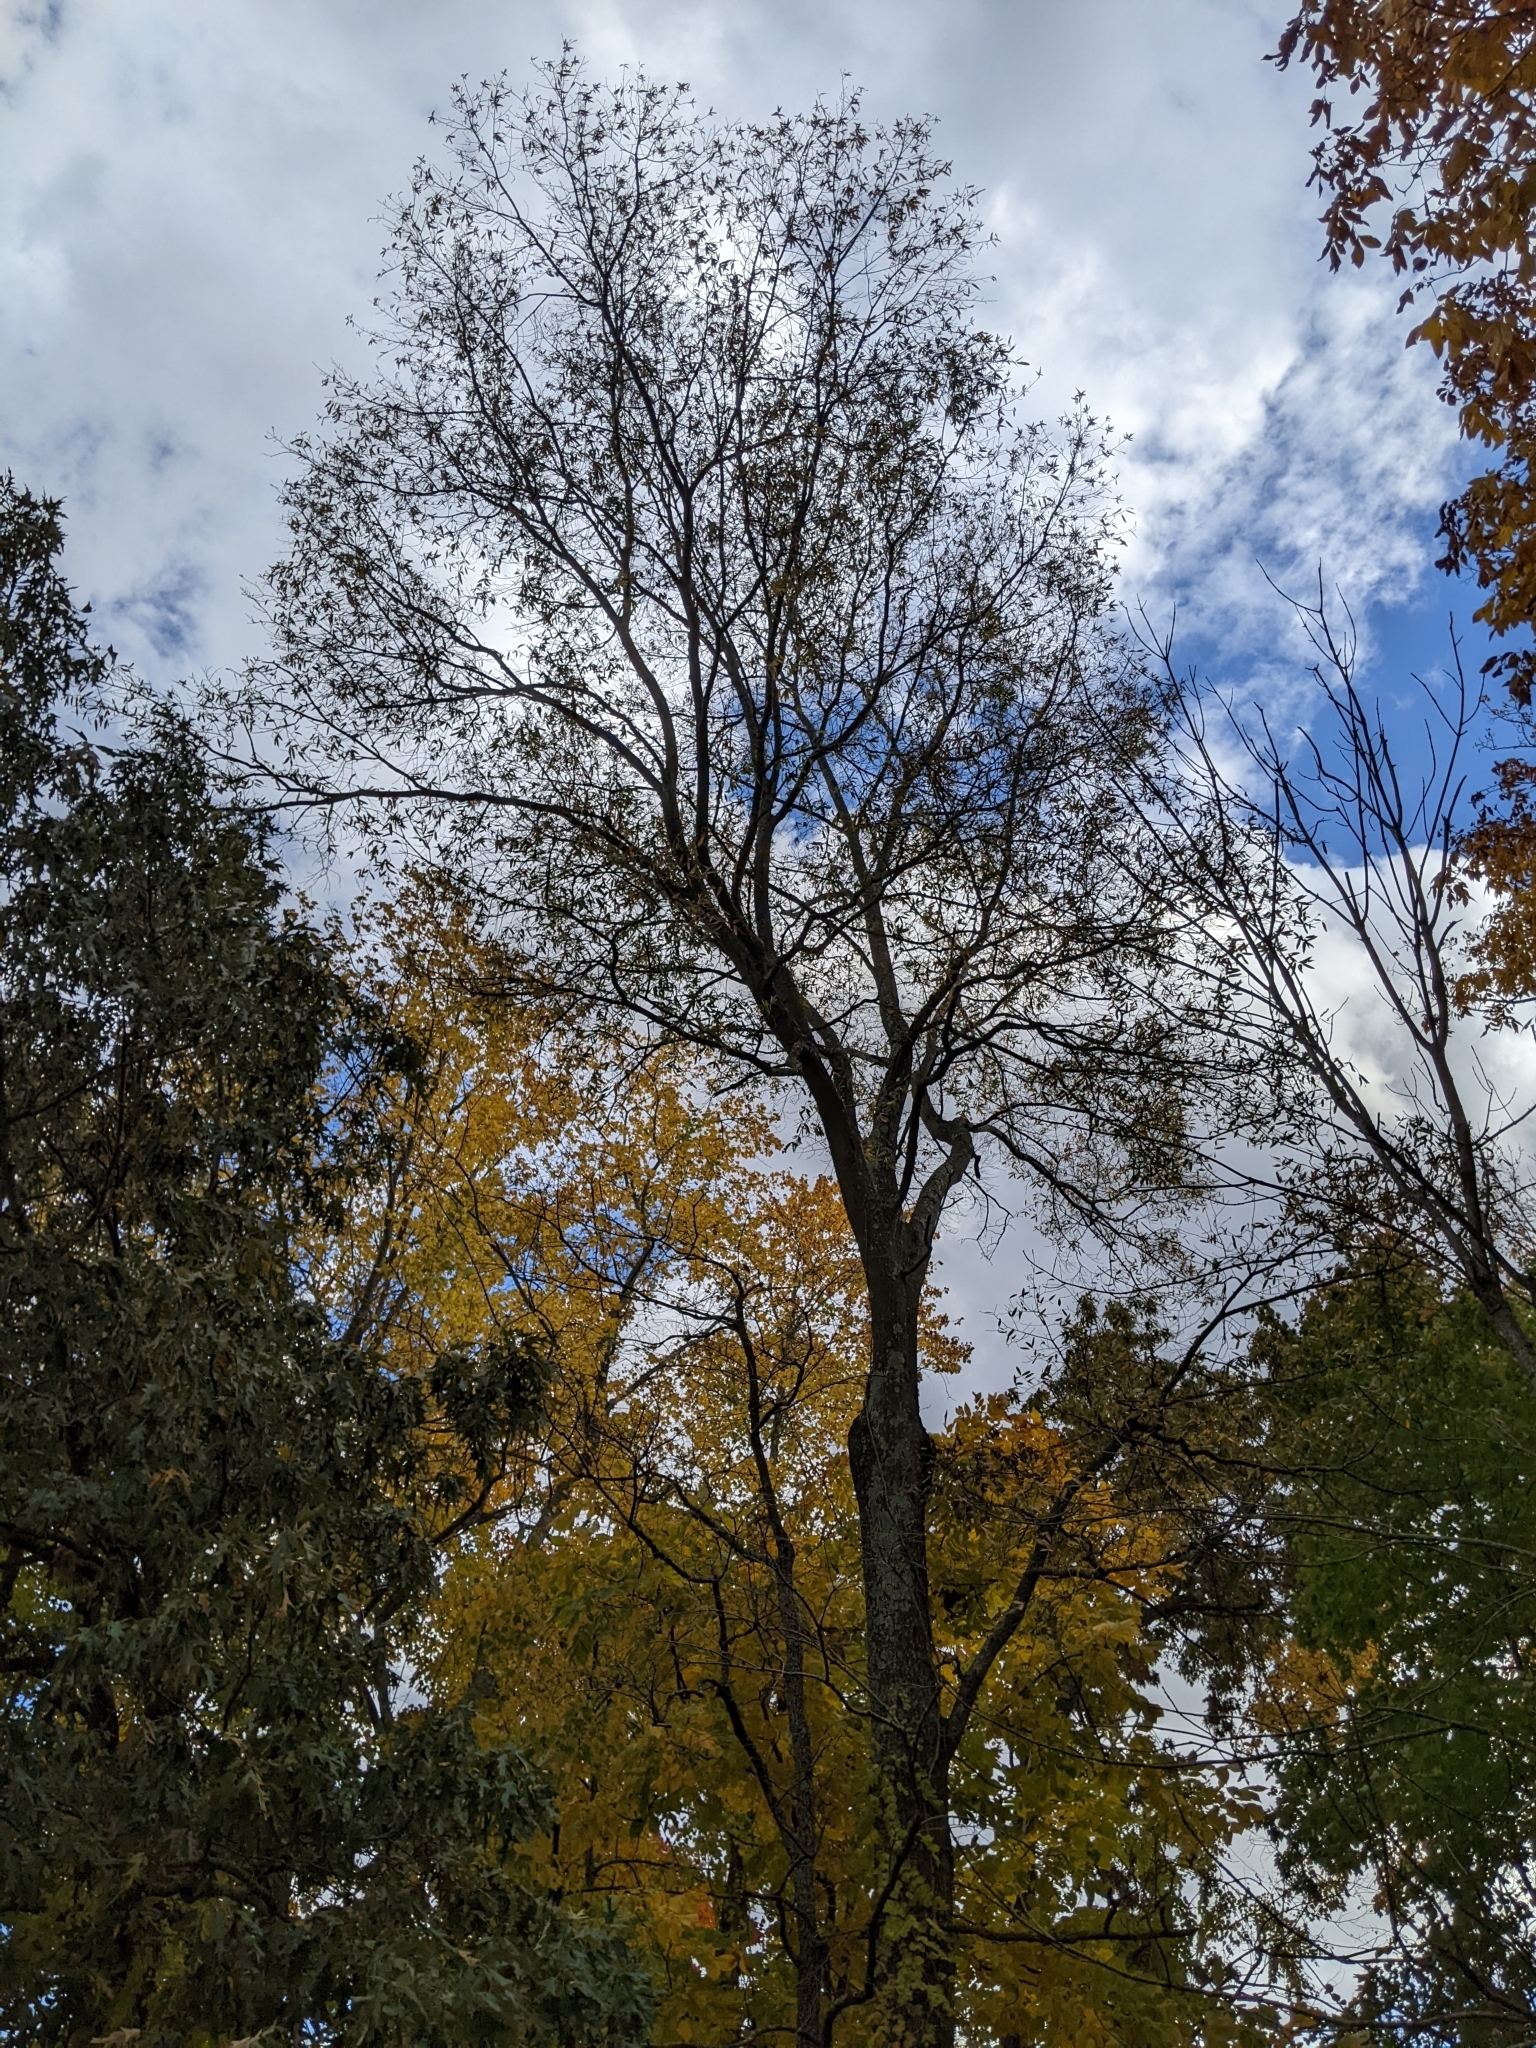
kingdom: Plantae
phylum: Tracheophyta
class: Magnoliopsida
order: Fagales
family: Fagaceae
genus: Quercus
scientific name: Quercus phellos
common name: Willow oak
